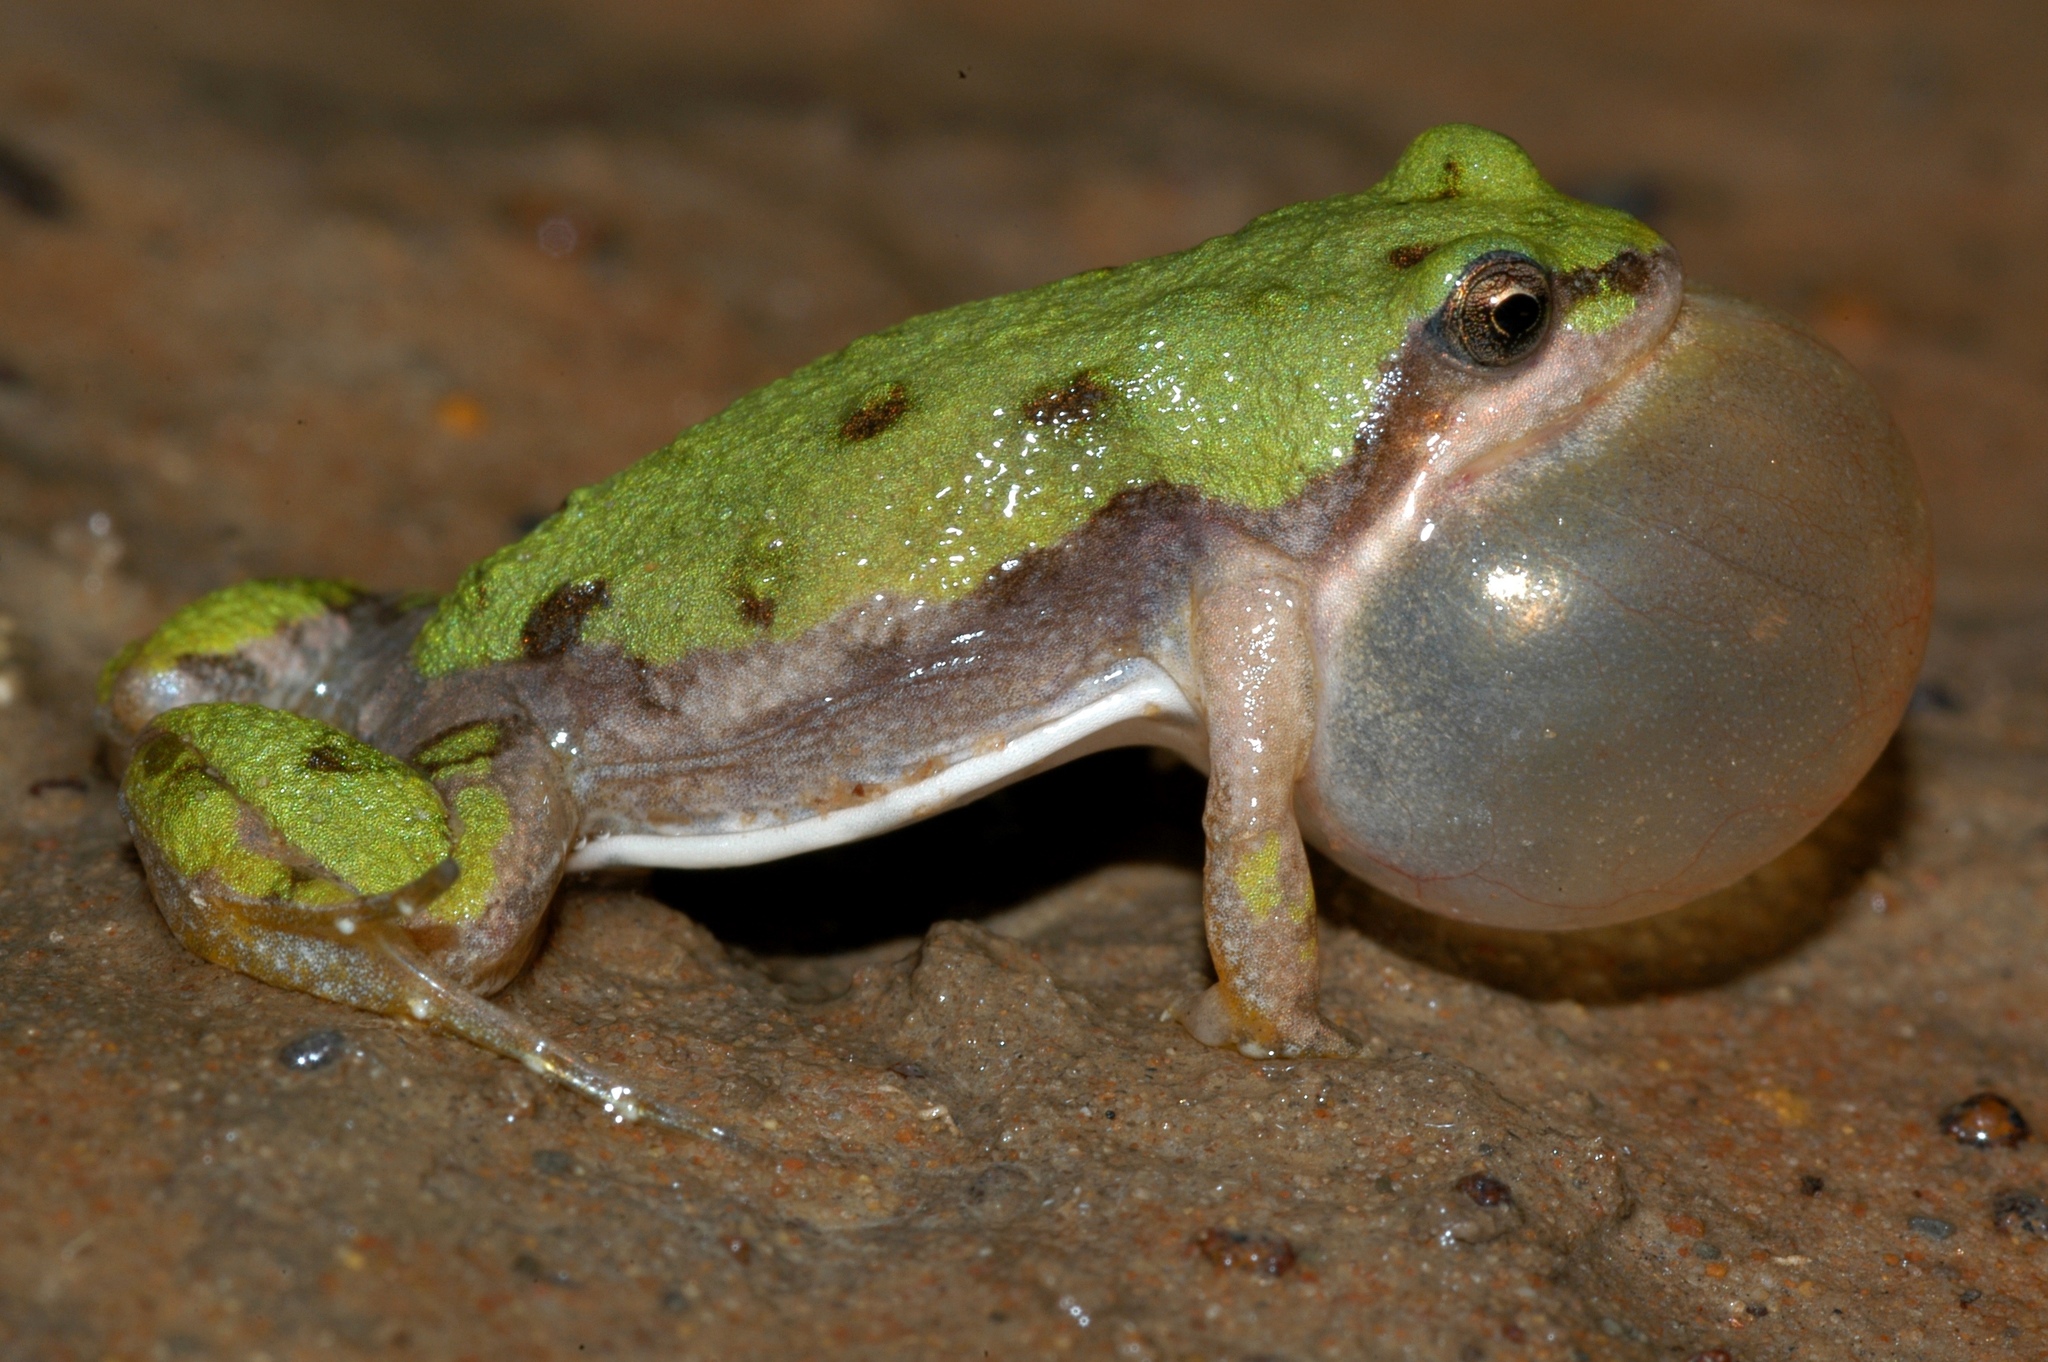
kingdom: Animalia
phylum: Chordata
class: Amphibia
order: Anura
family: Pyxicephalidae
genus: Cacosternum
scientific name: Cacosternum boettgeri
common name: Boettger's frog
